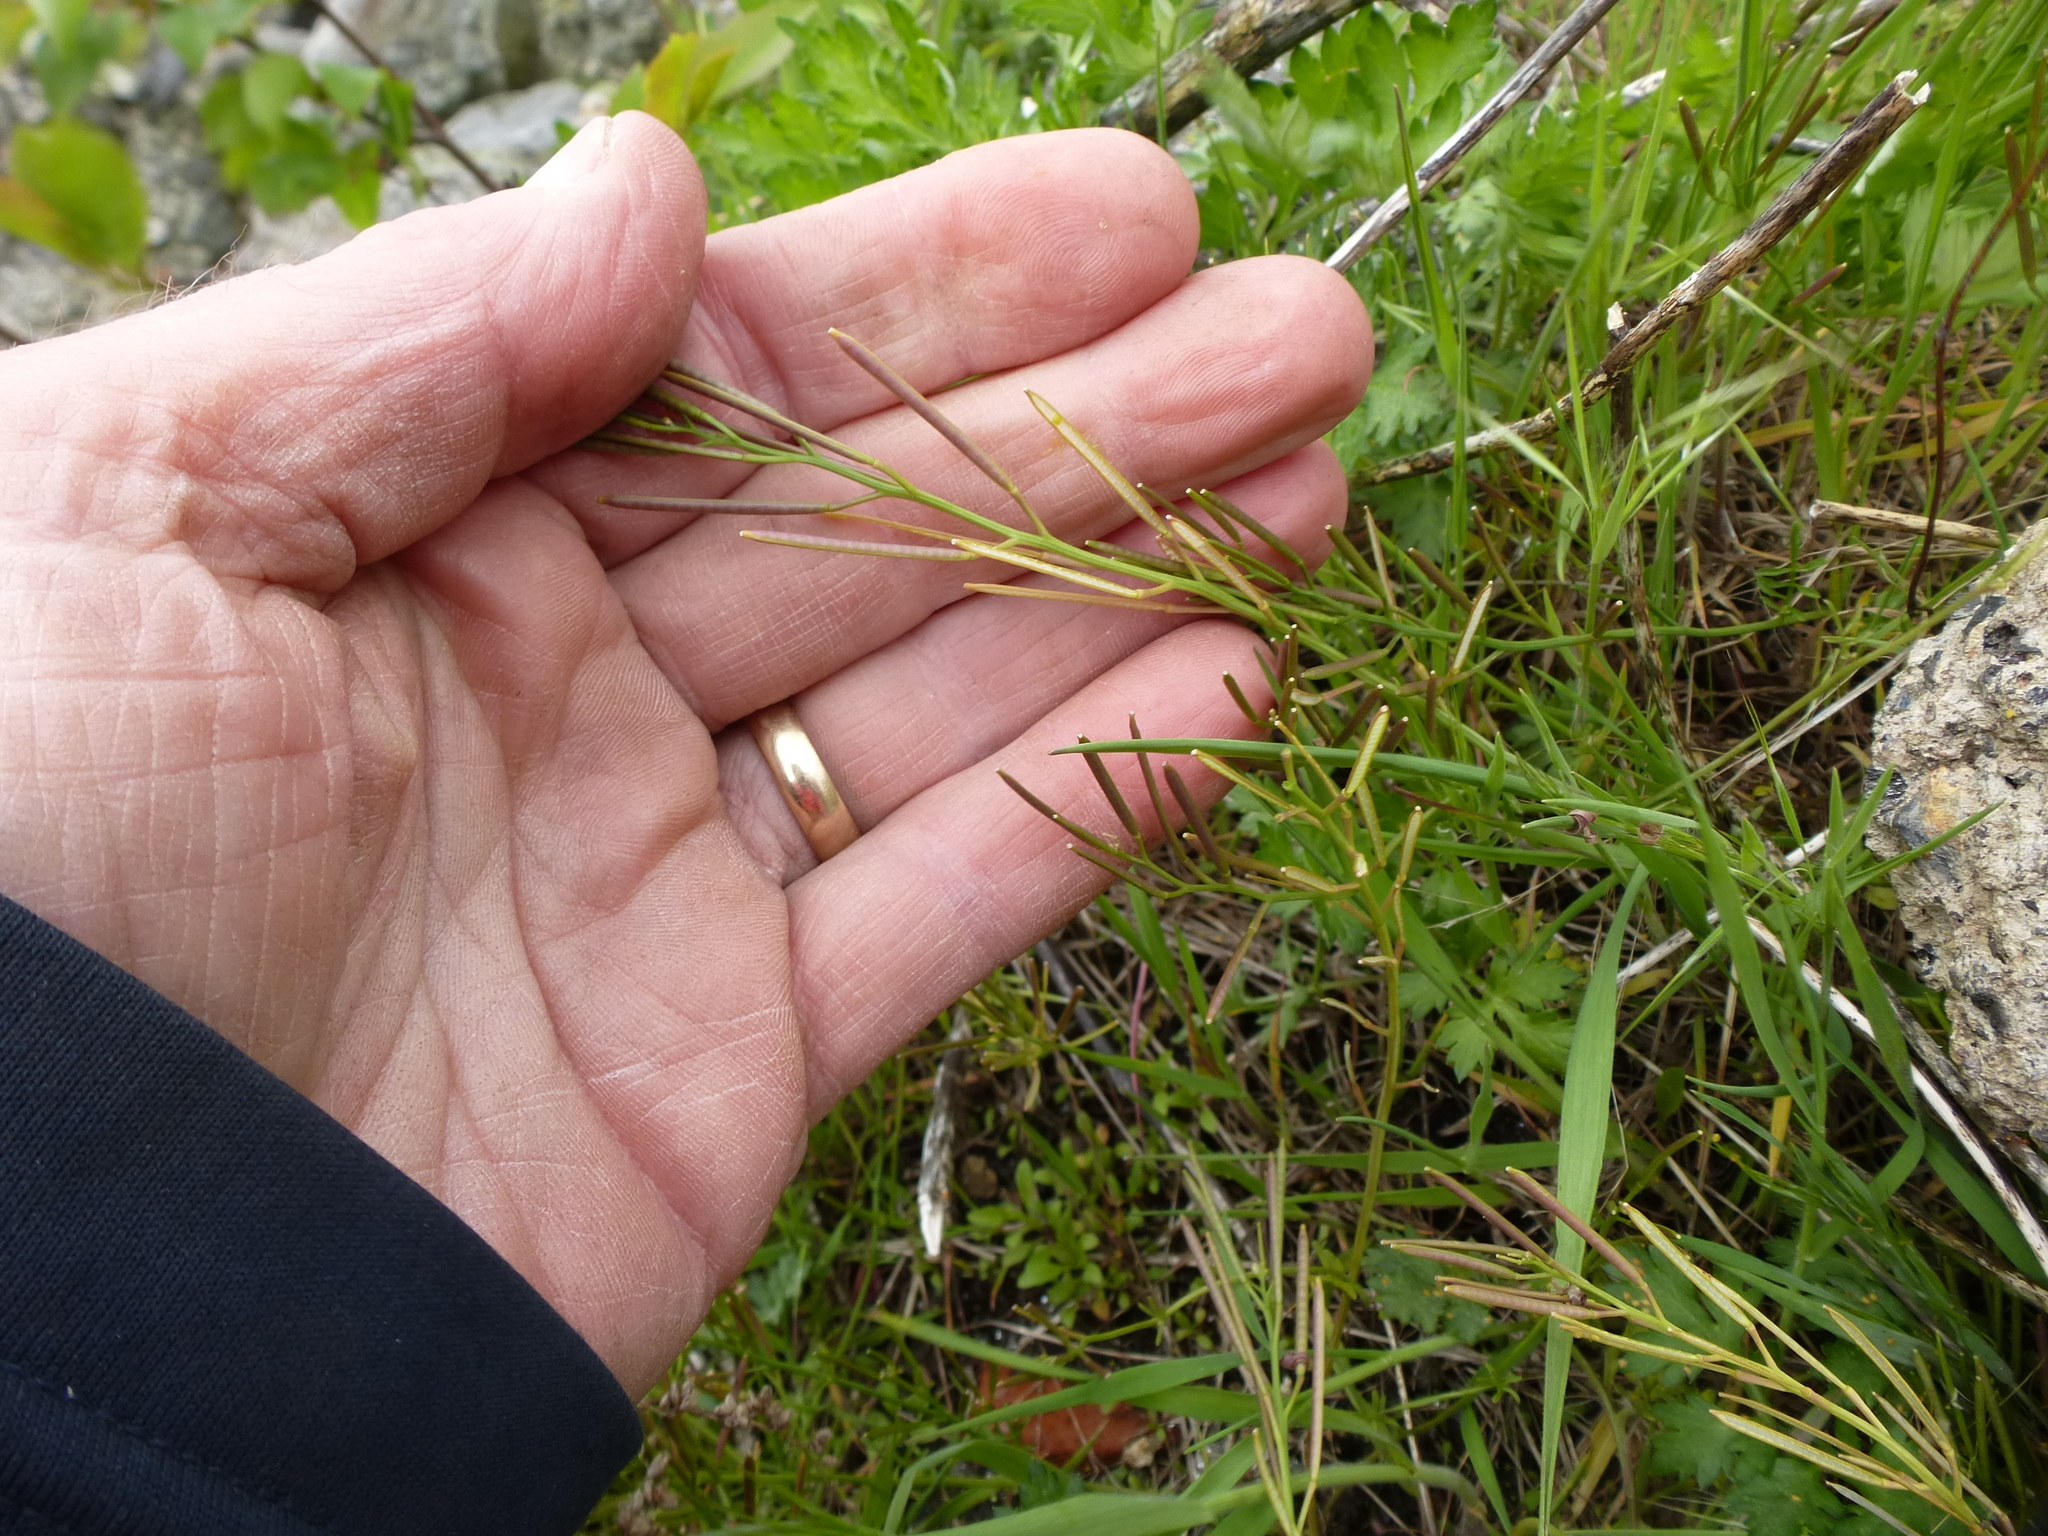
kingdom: Plantae
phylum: Tracheophyta
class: Magnoliopsida
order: Brassicales
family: Brassicaceae
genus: Cardamine
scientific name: Cardamine hirsuta
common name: Hairy bittercress
